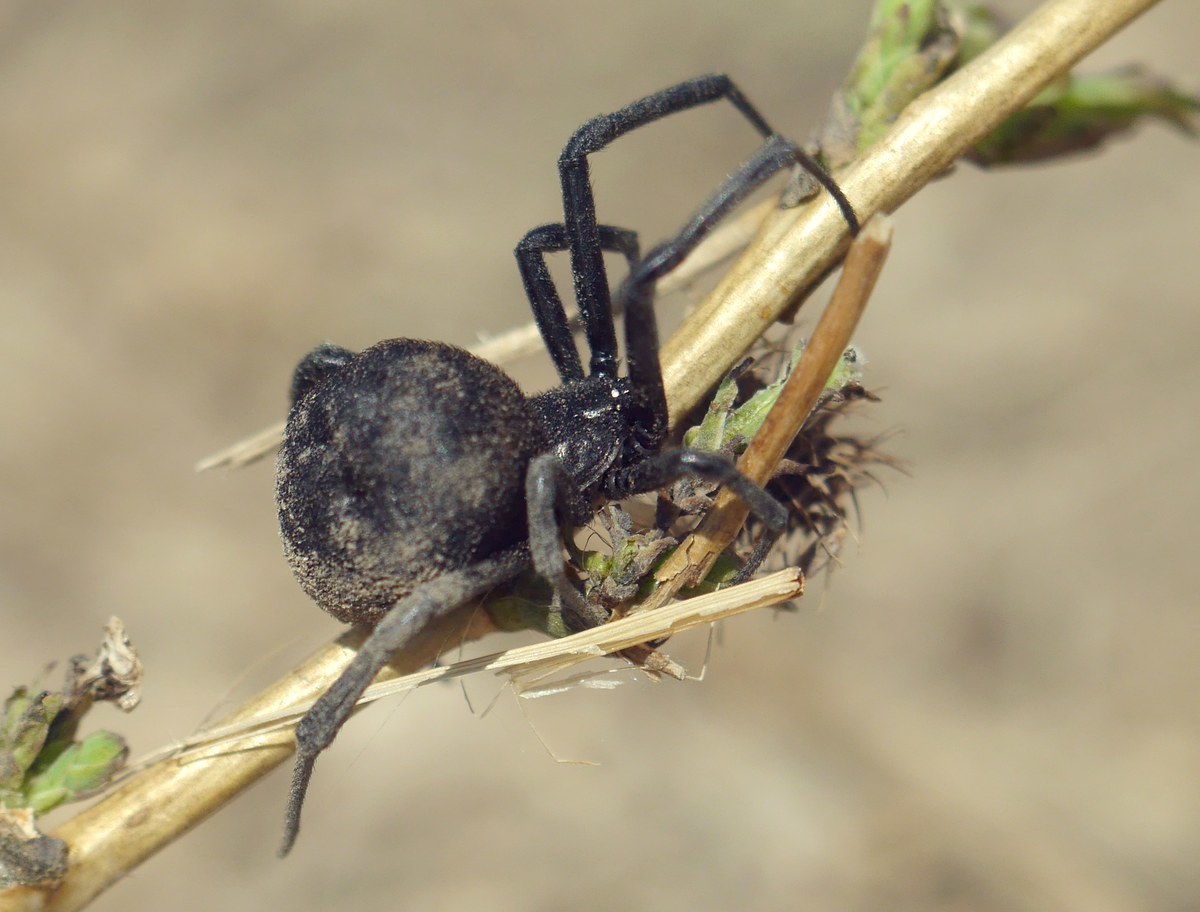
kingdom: Animalia
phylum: Arthropoda
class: Arachnida
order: Araneae
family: Theridiidae
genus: Latrodectus
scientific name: Latrodectus tredecimguttatus
